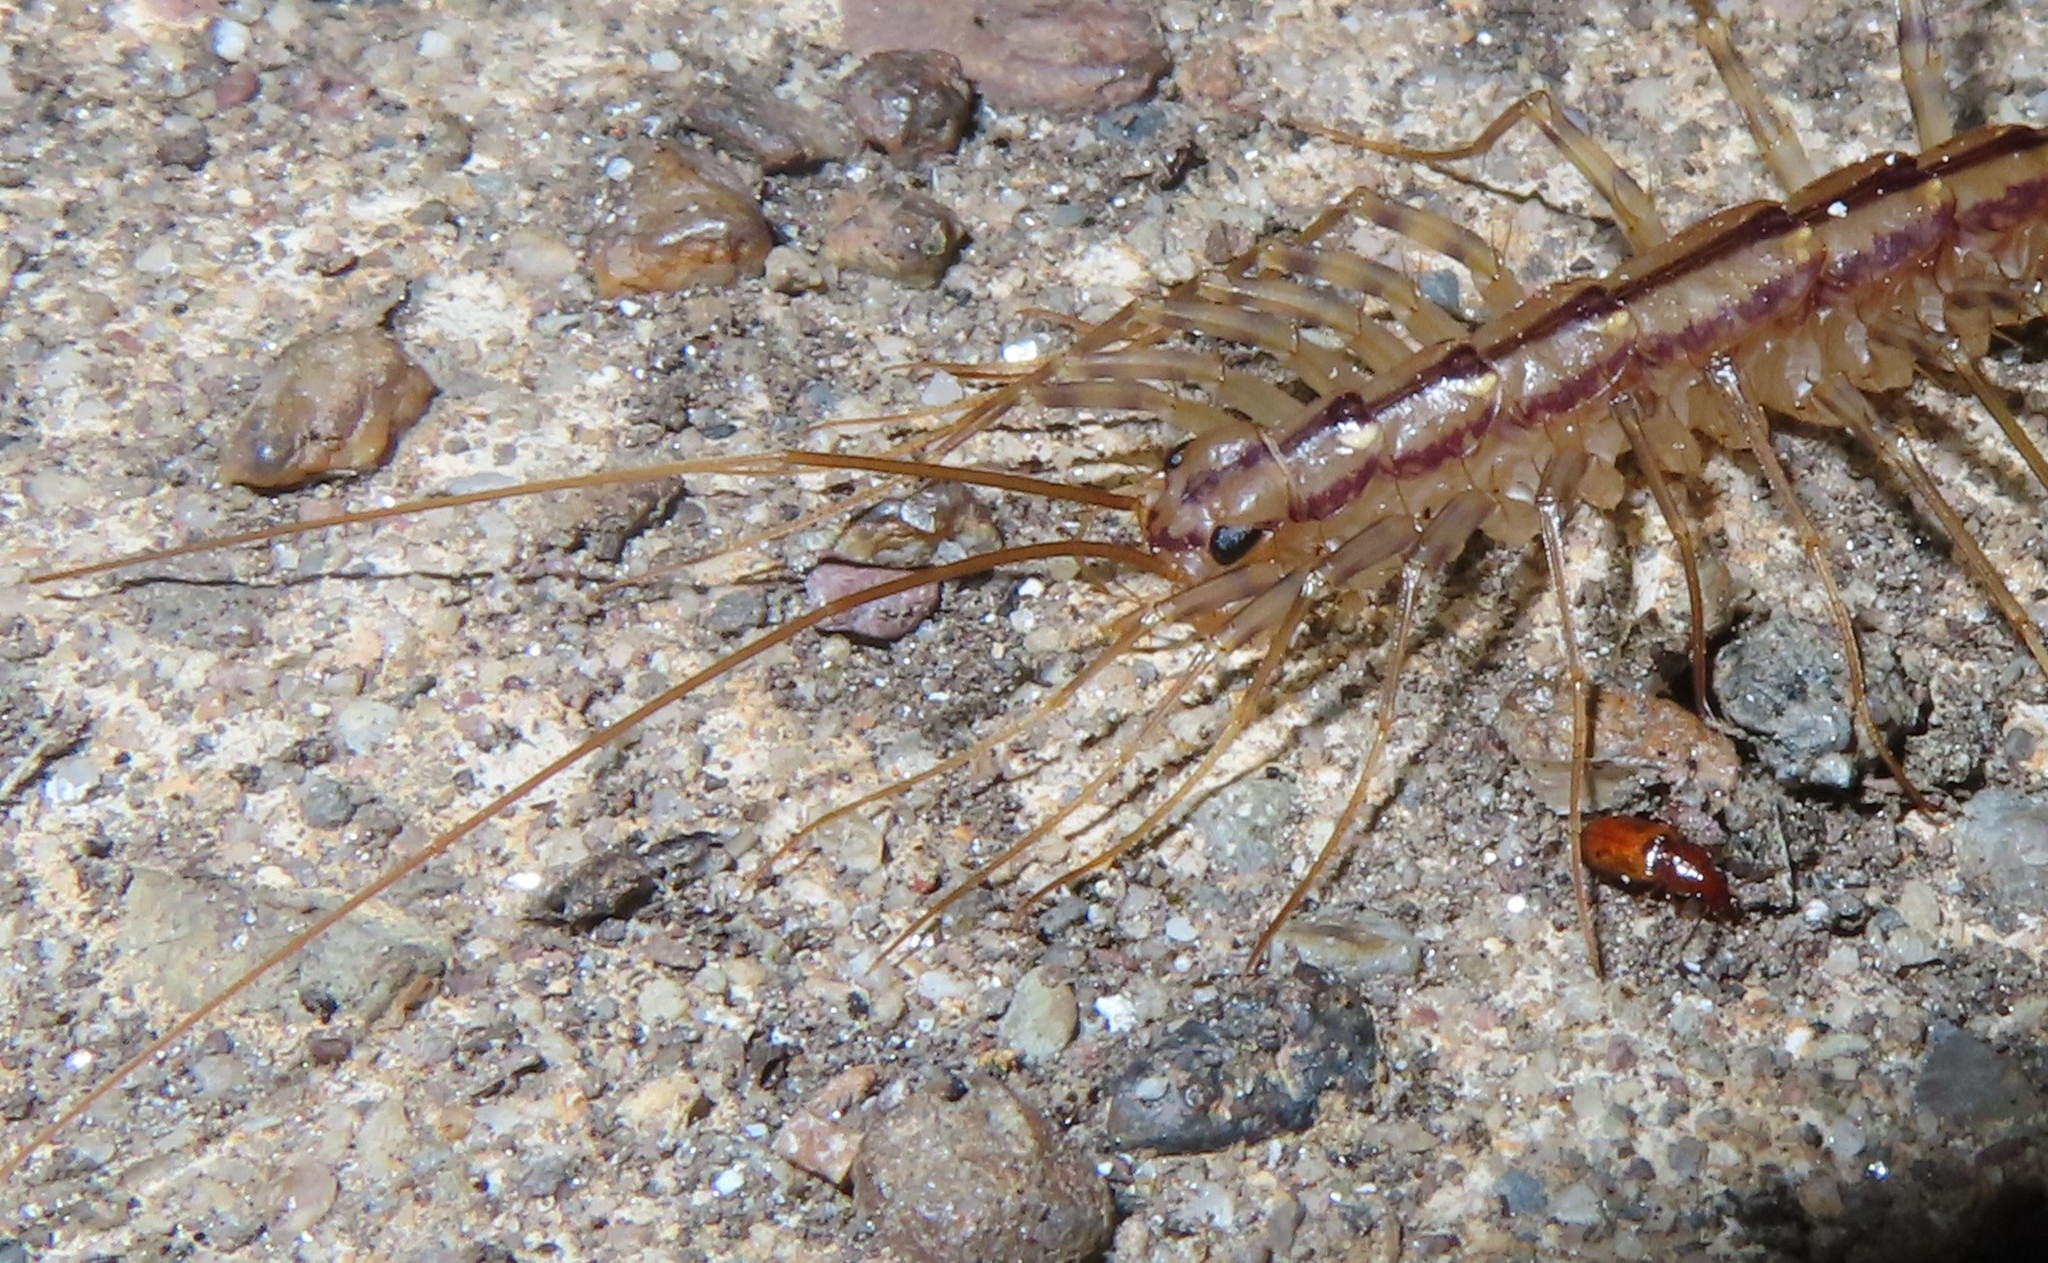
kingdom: Animalia
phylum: Arthropoda
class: Chilopoda
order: Scutigeromorpha
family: Scutigeridae
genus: Scutigera
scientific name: Scutigera coleoptrata
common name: House centipede
